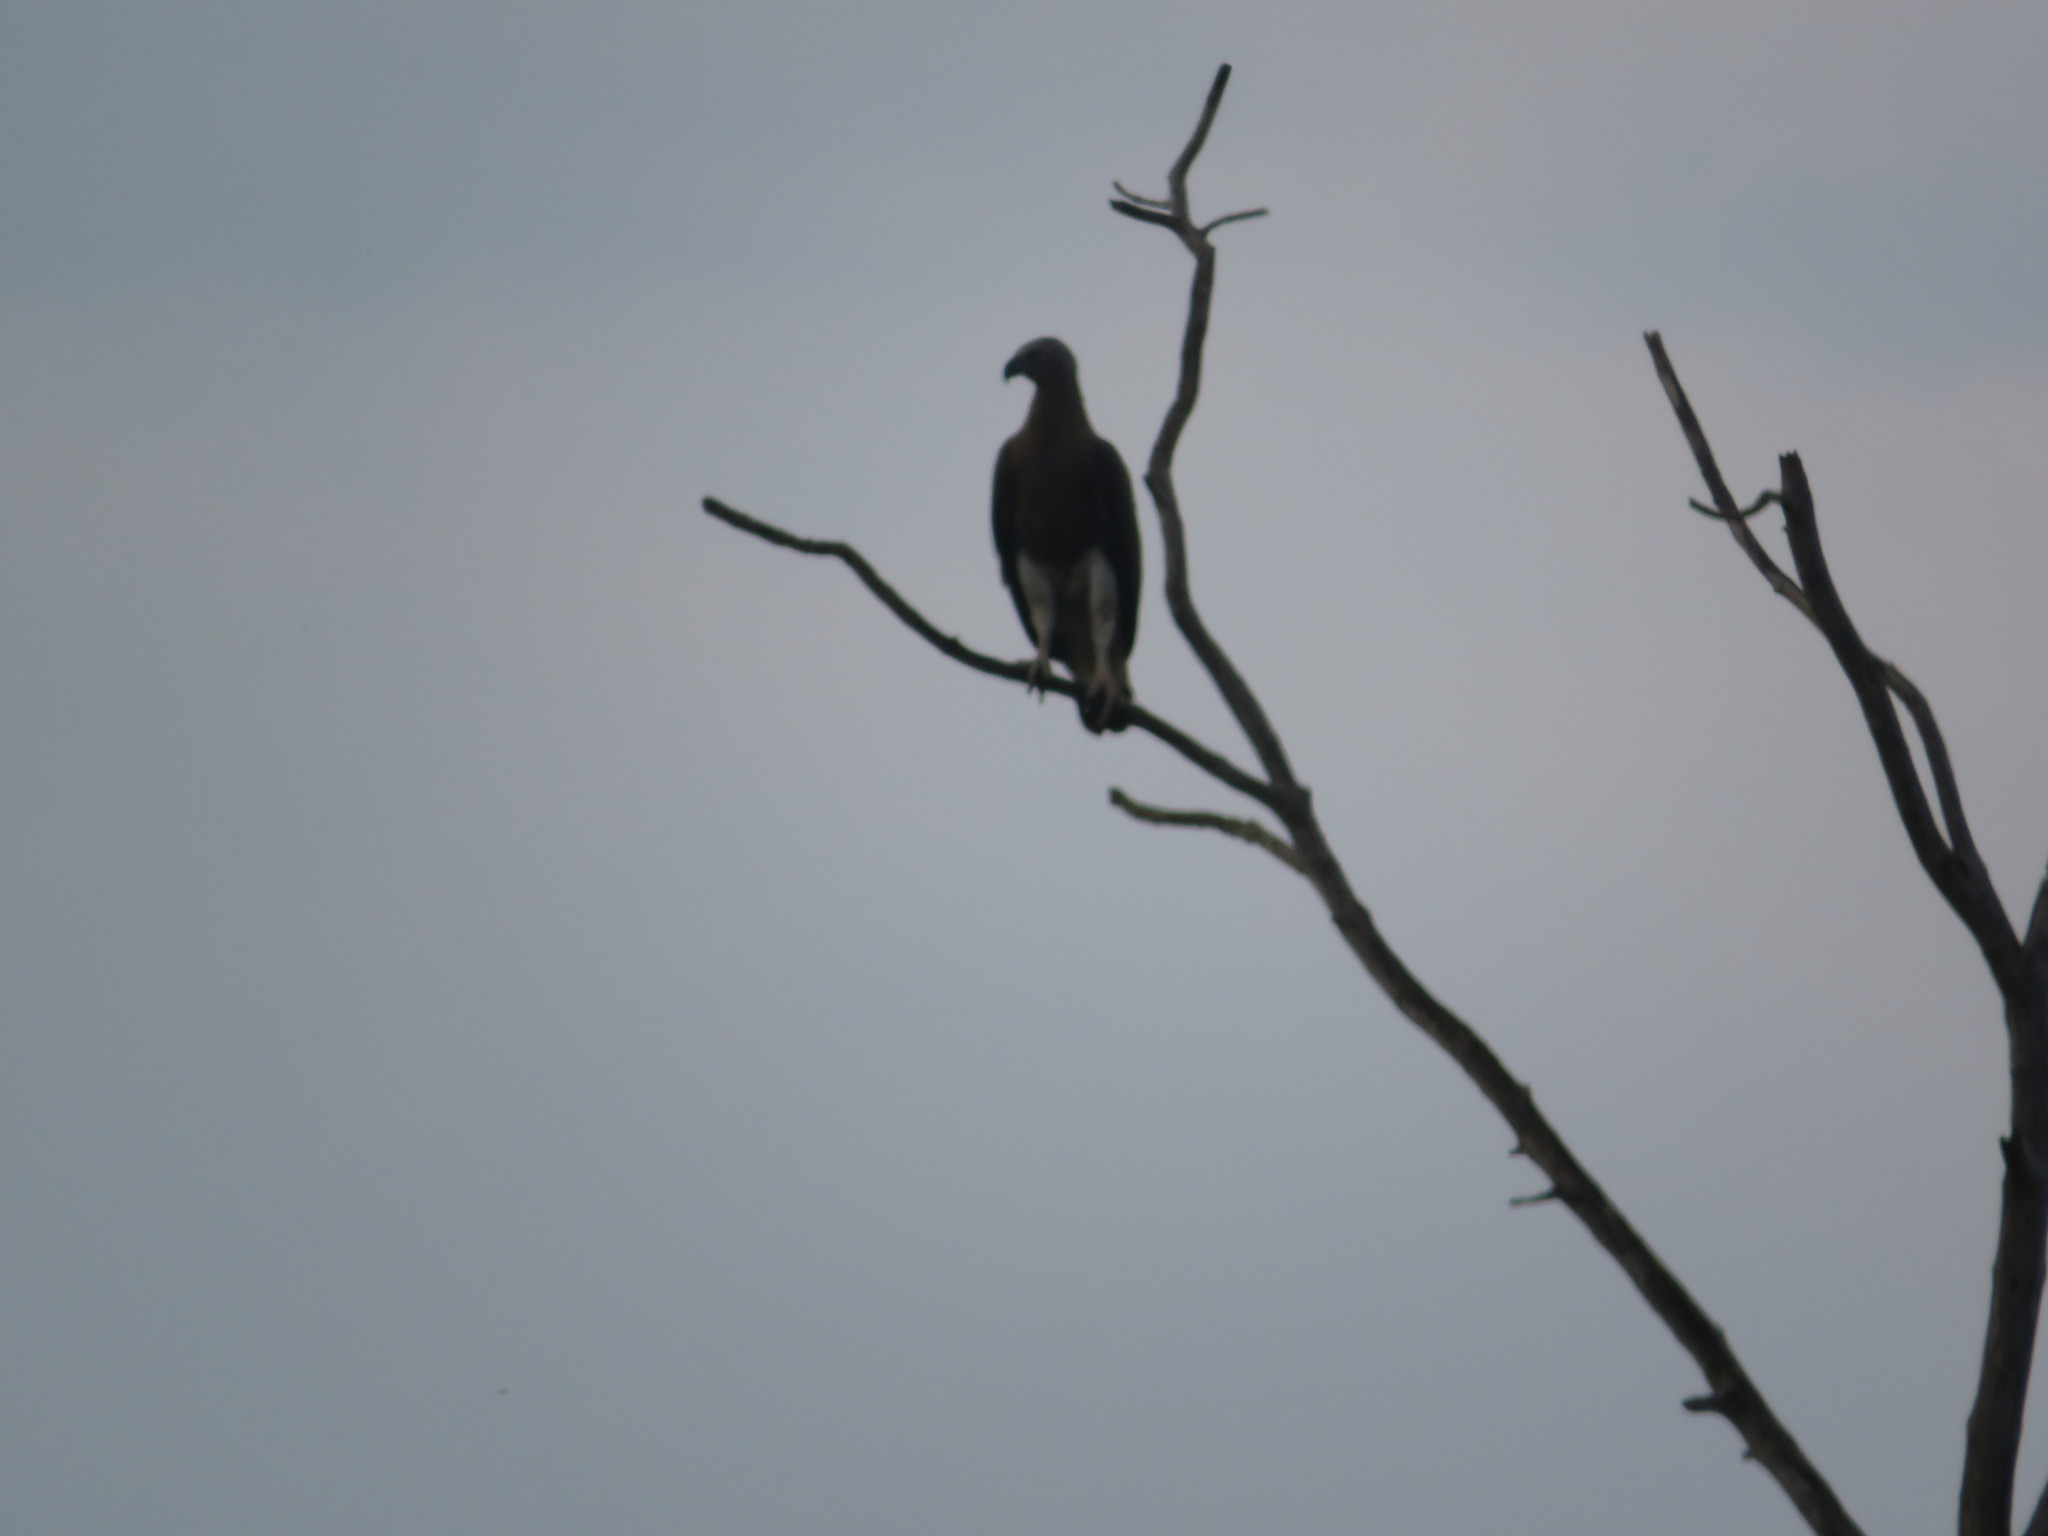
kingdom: Animalia
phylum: Chordata
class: Aves
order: Accipitriformes
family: Accipitridae
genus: Icthyophaga
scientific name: Icthyophaga ichthyaetus
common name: Grey-headed fish eagle
